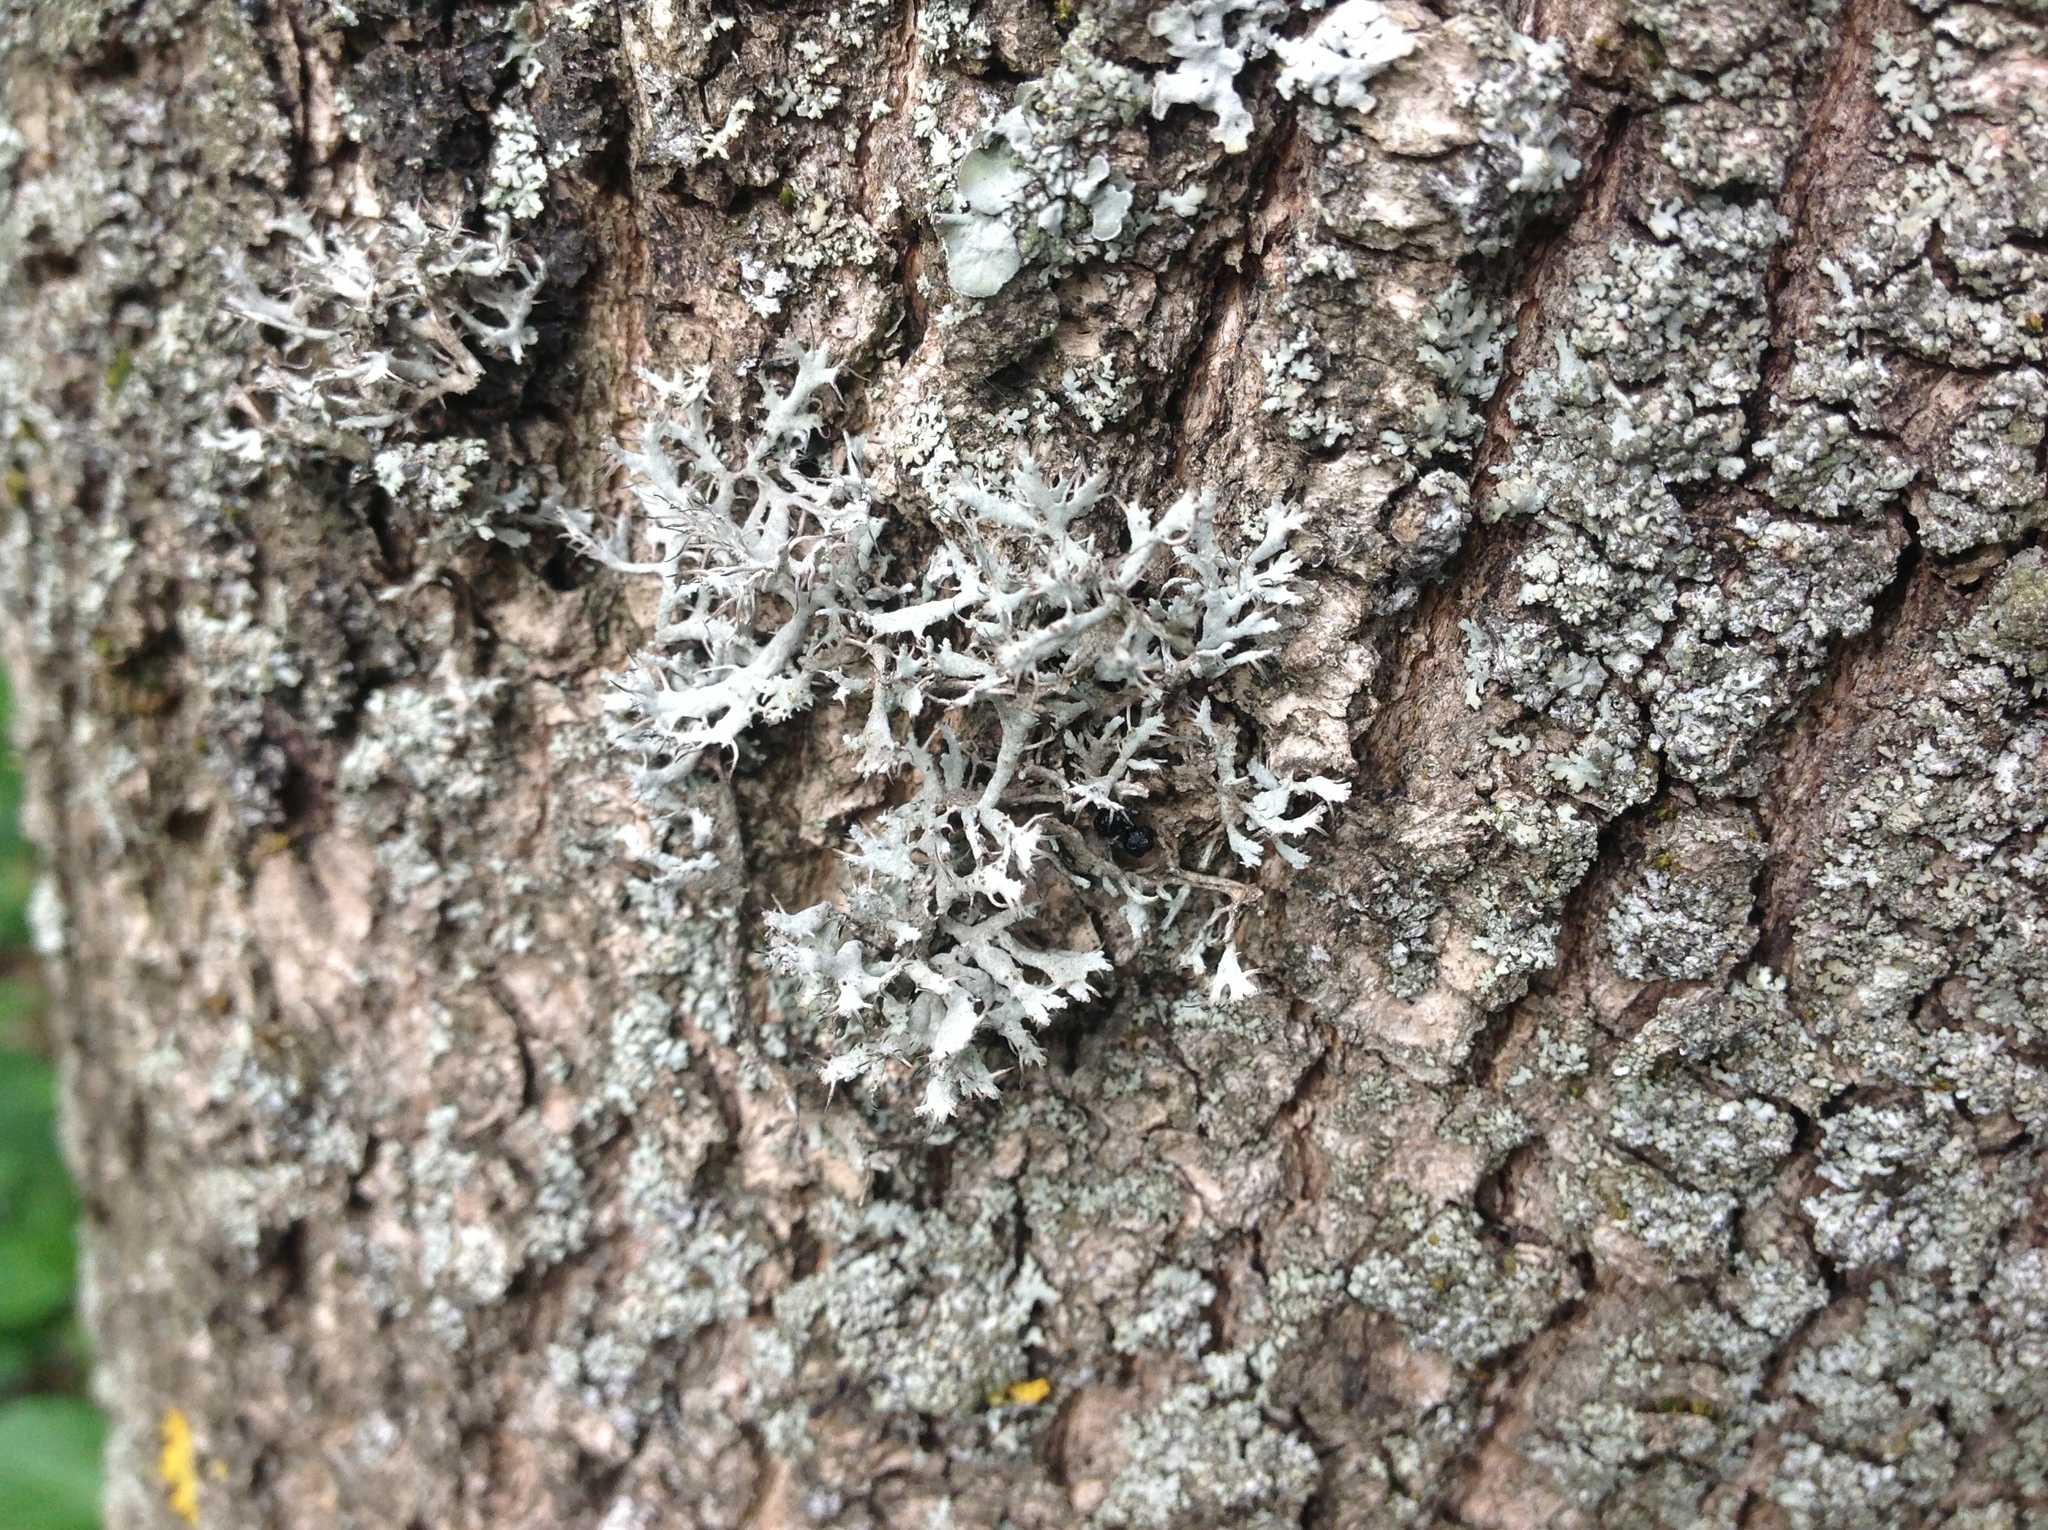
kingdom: Fungi
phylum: Ascomycota
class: Lecanoromycetes
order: Caliciales
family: Physciaceae
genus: Anaptychia
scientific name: Anaptychia ciliaris
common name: Great ciliated lichen
